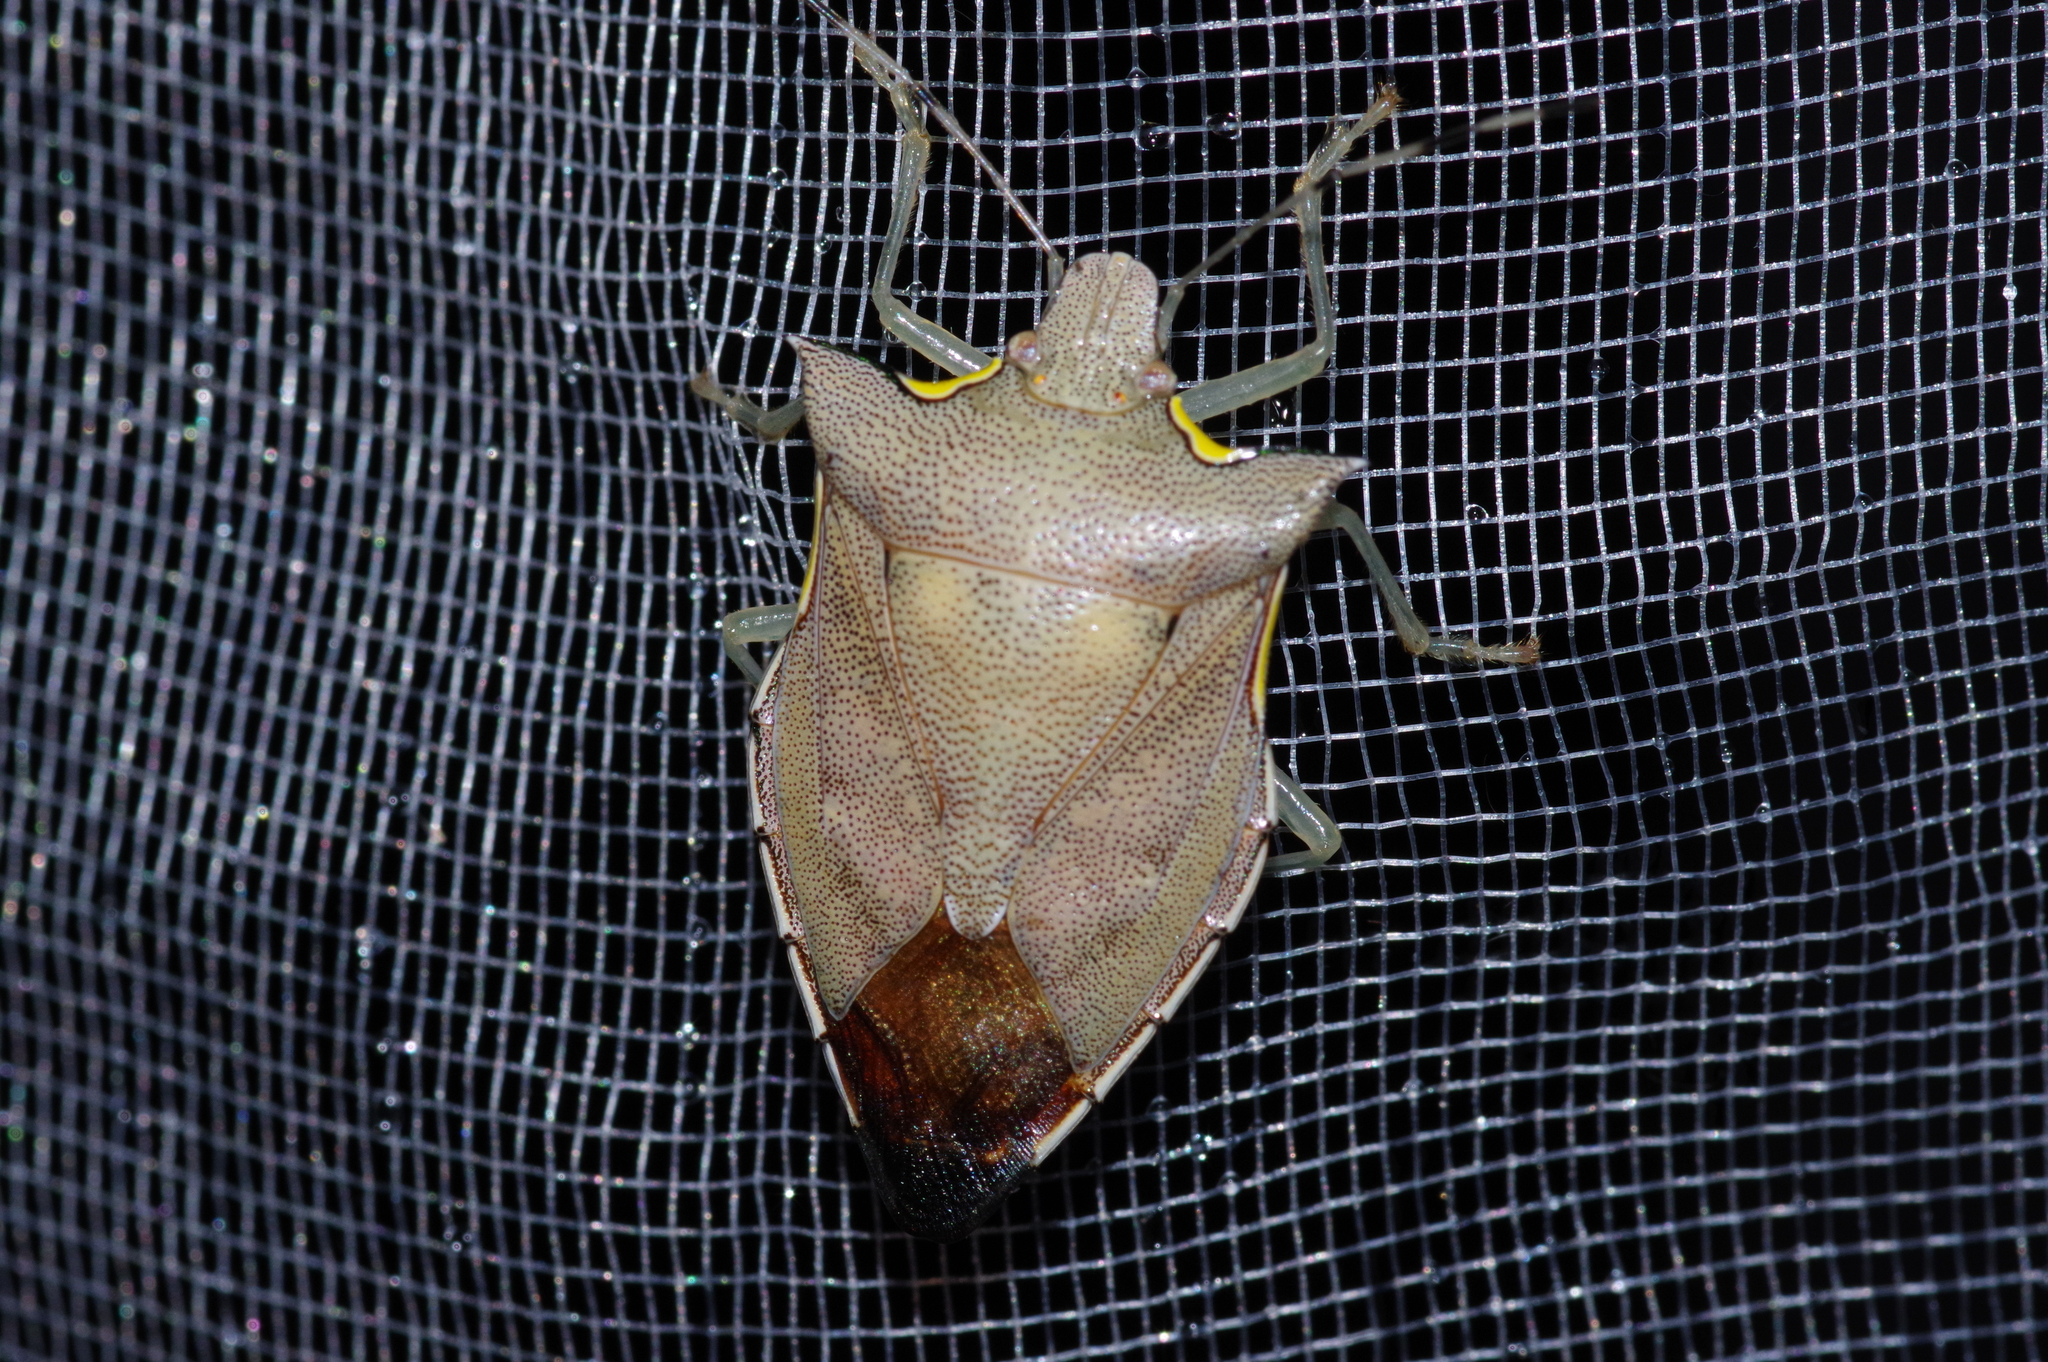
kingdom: Animalia
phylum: Arthropoda
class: Insecta
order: Hemiptera
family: Pentatomidae
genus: Amblycara
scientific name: Amblycara gladiatoria
